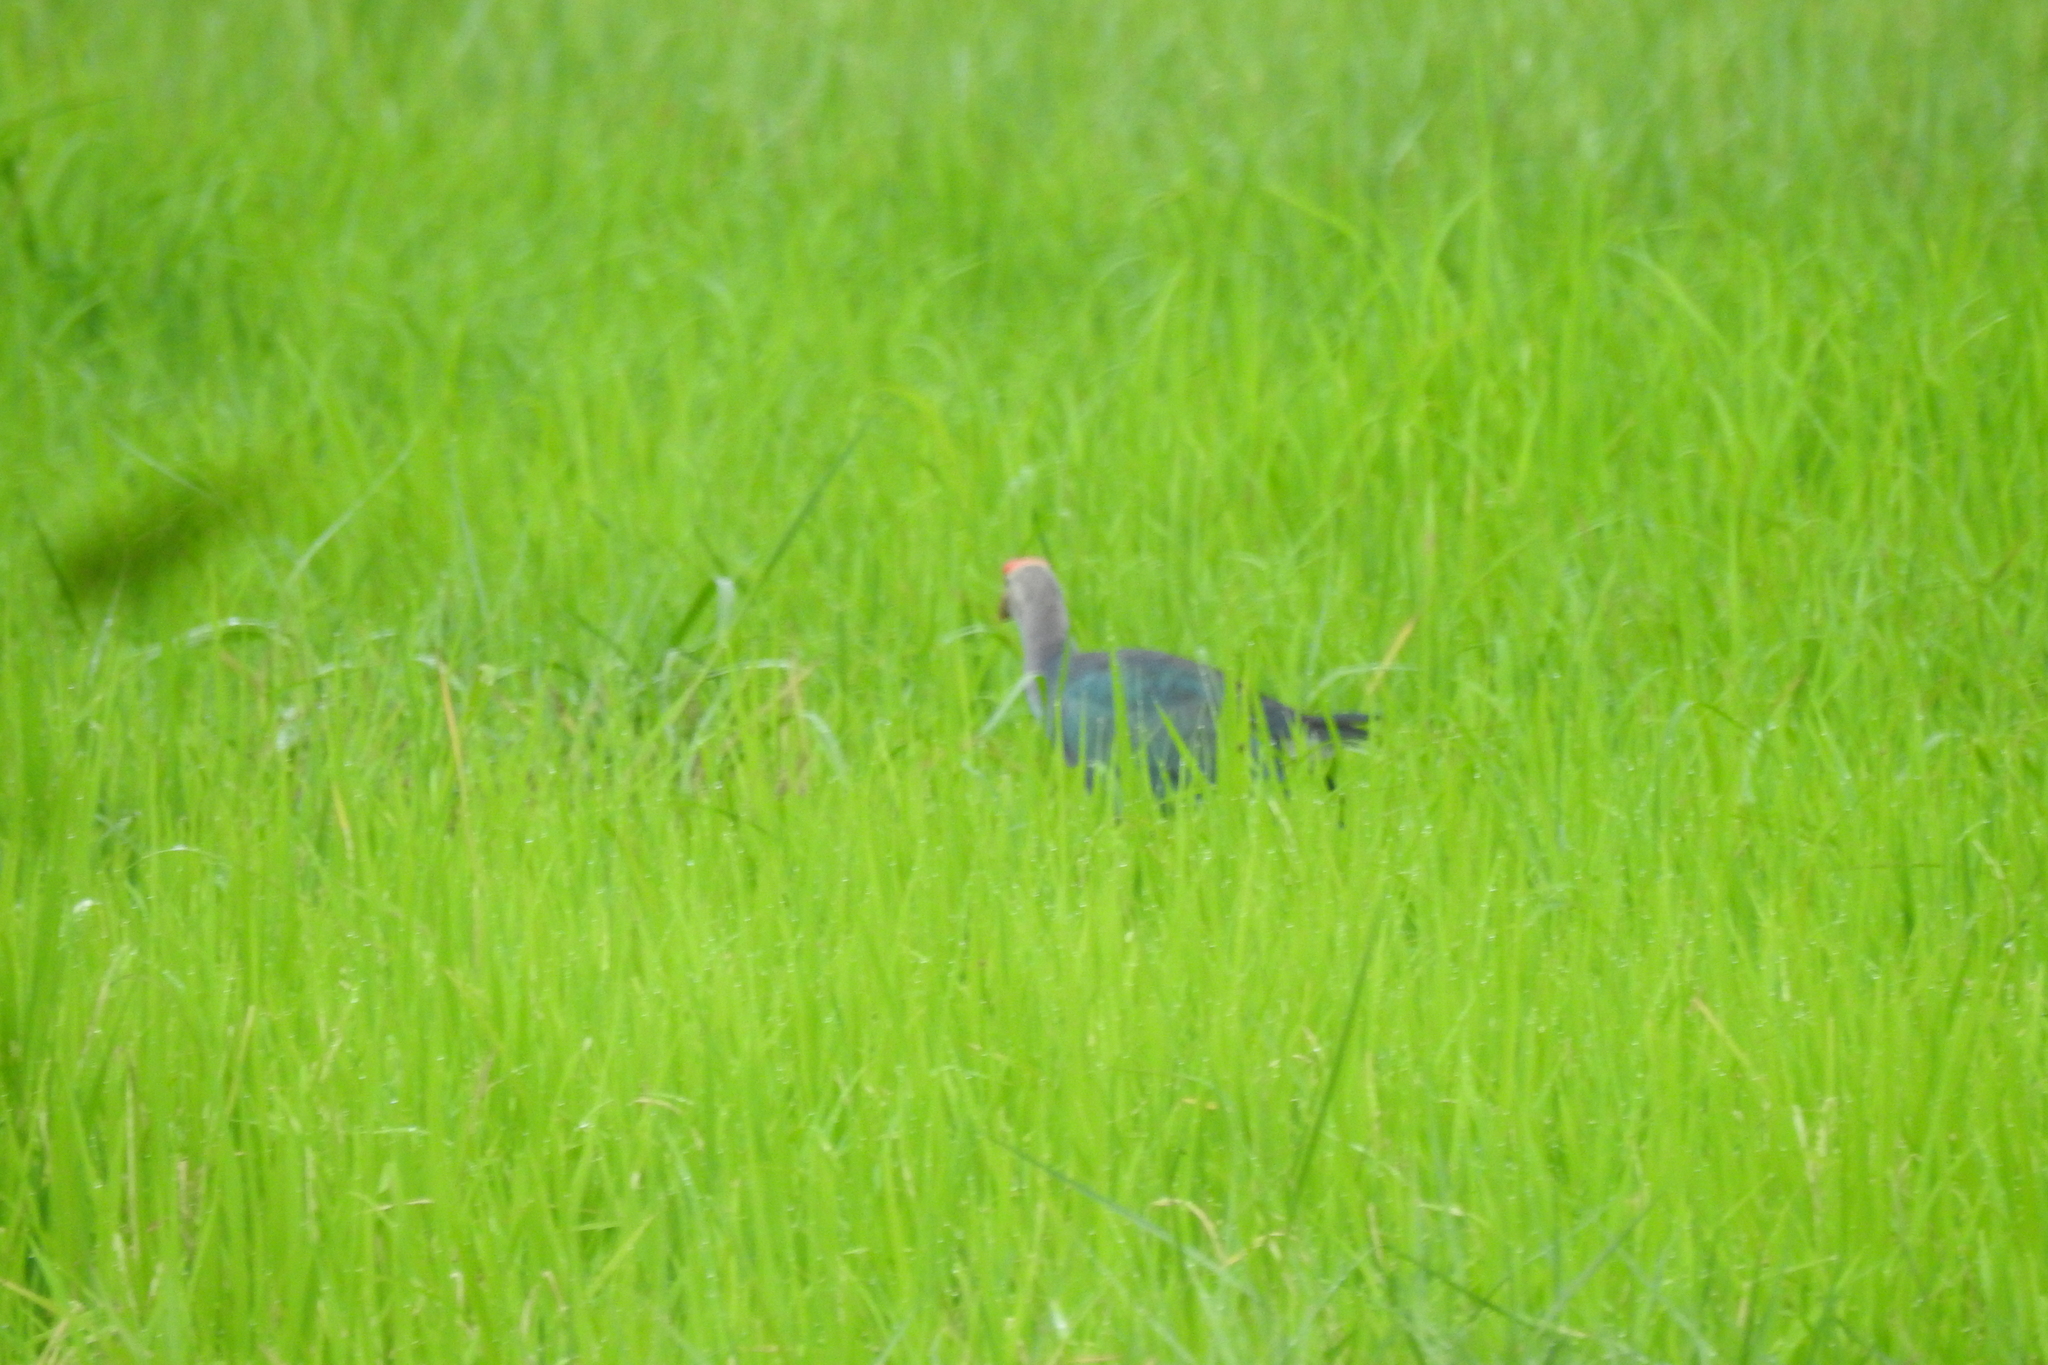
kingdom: Animalia
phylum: Chordata
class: Aves
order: Gruiformes
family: Rallidae
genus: Porphyrio
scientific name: Porphyrio porphyrio
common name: Purple swamphen
